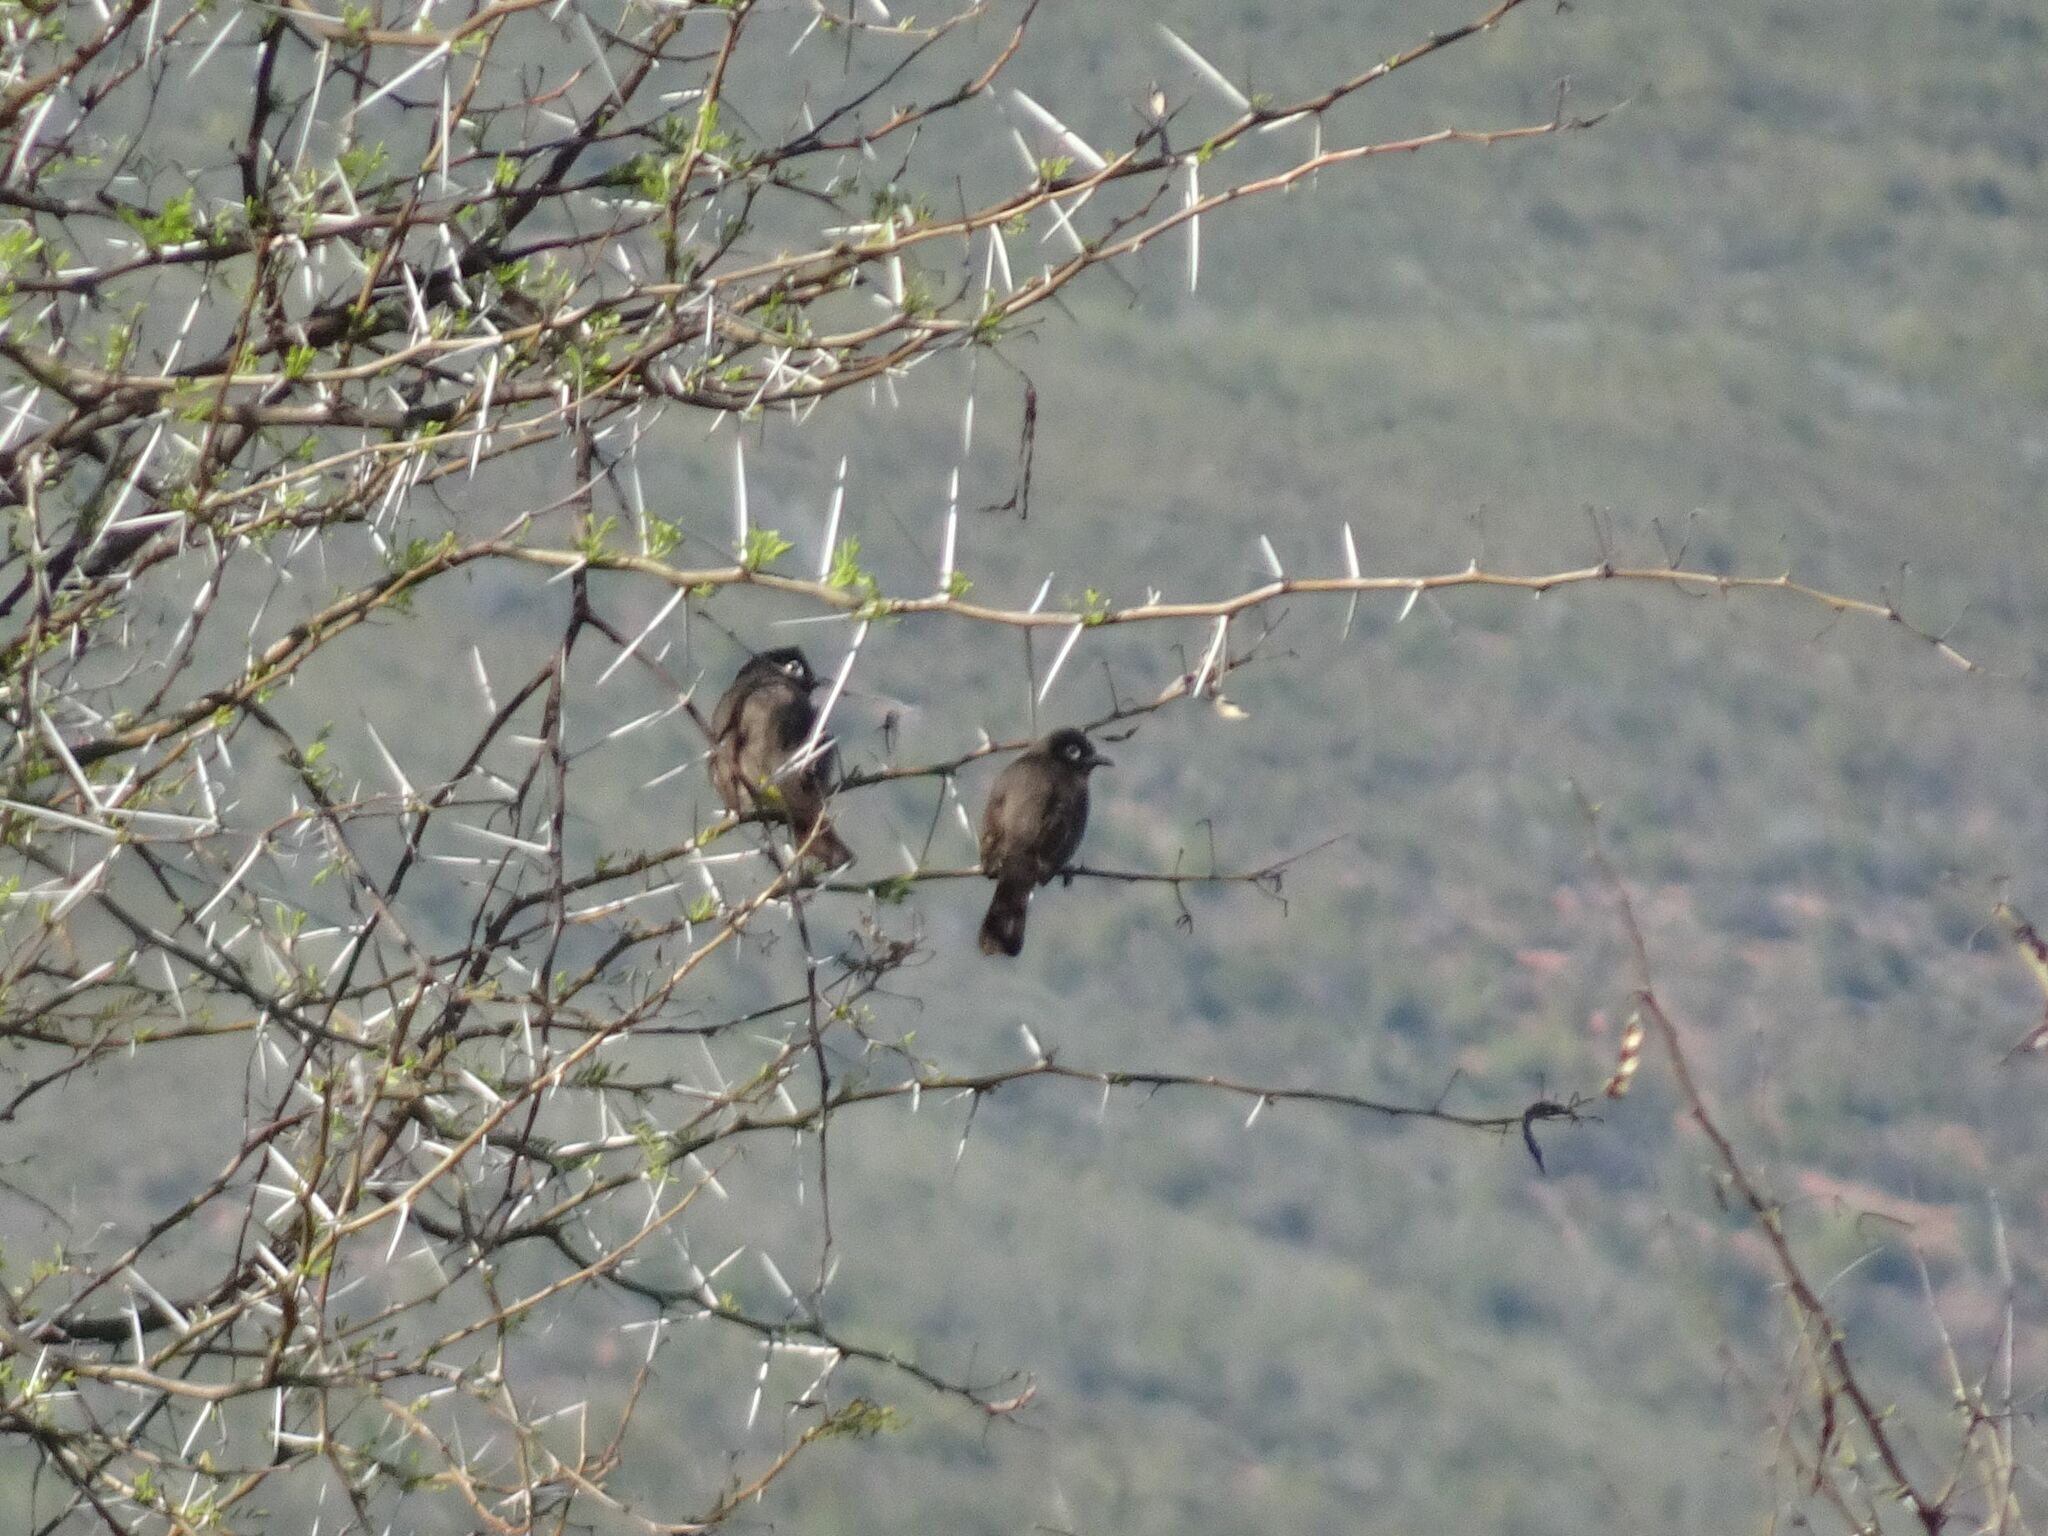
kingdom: Animalia
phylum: Chordata
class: Aves
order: Passeriformes
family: Pycnonotidae
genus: Pycnonotus
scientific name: Pycnonotus capensis
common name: Cape bulbul
